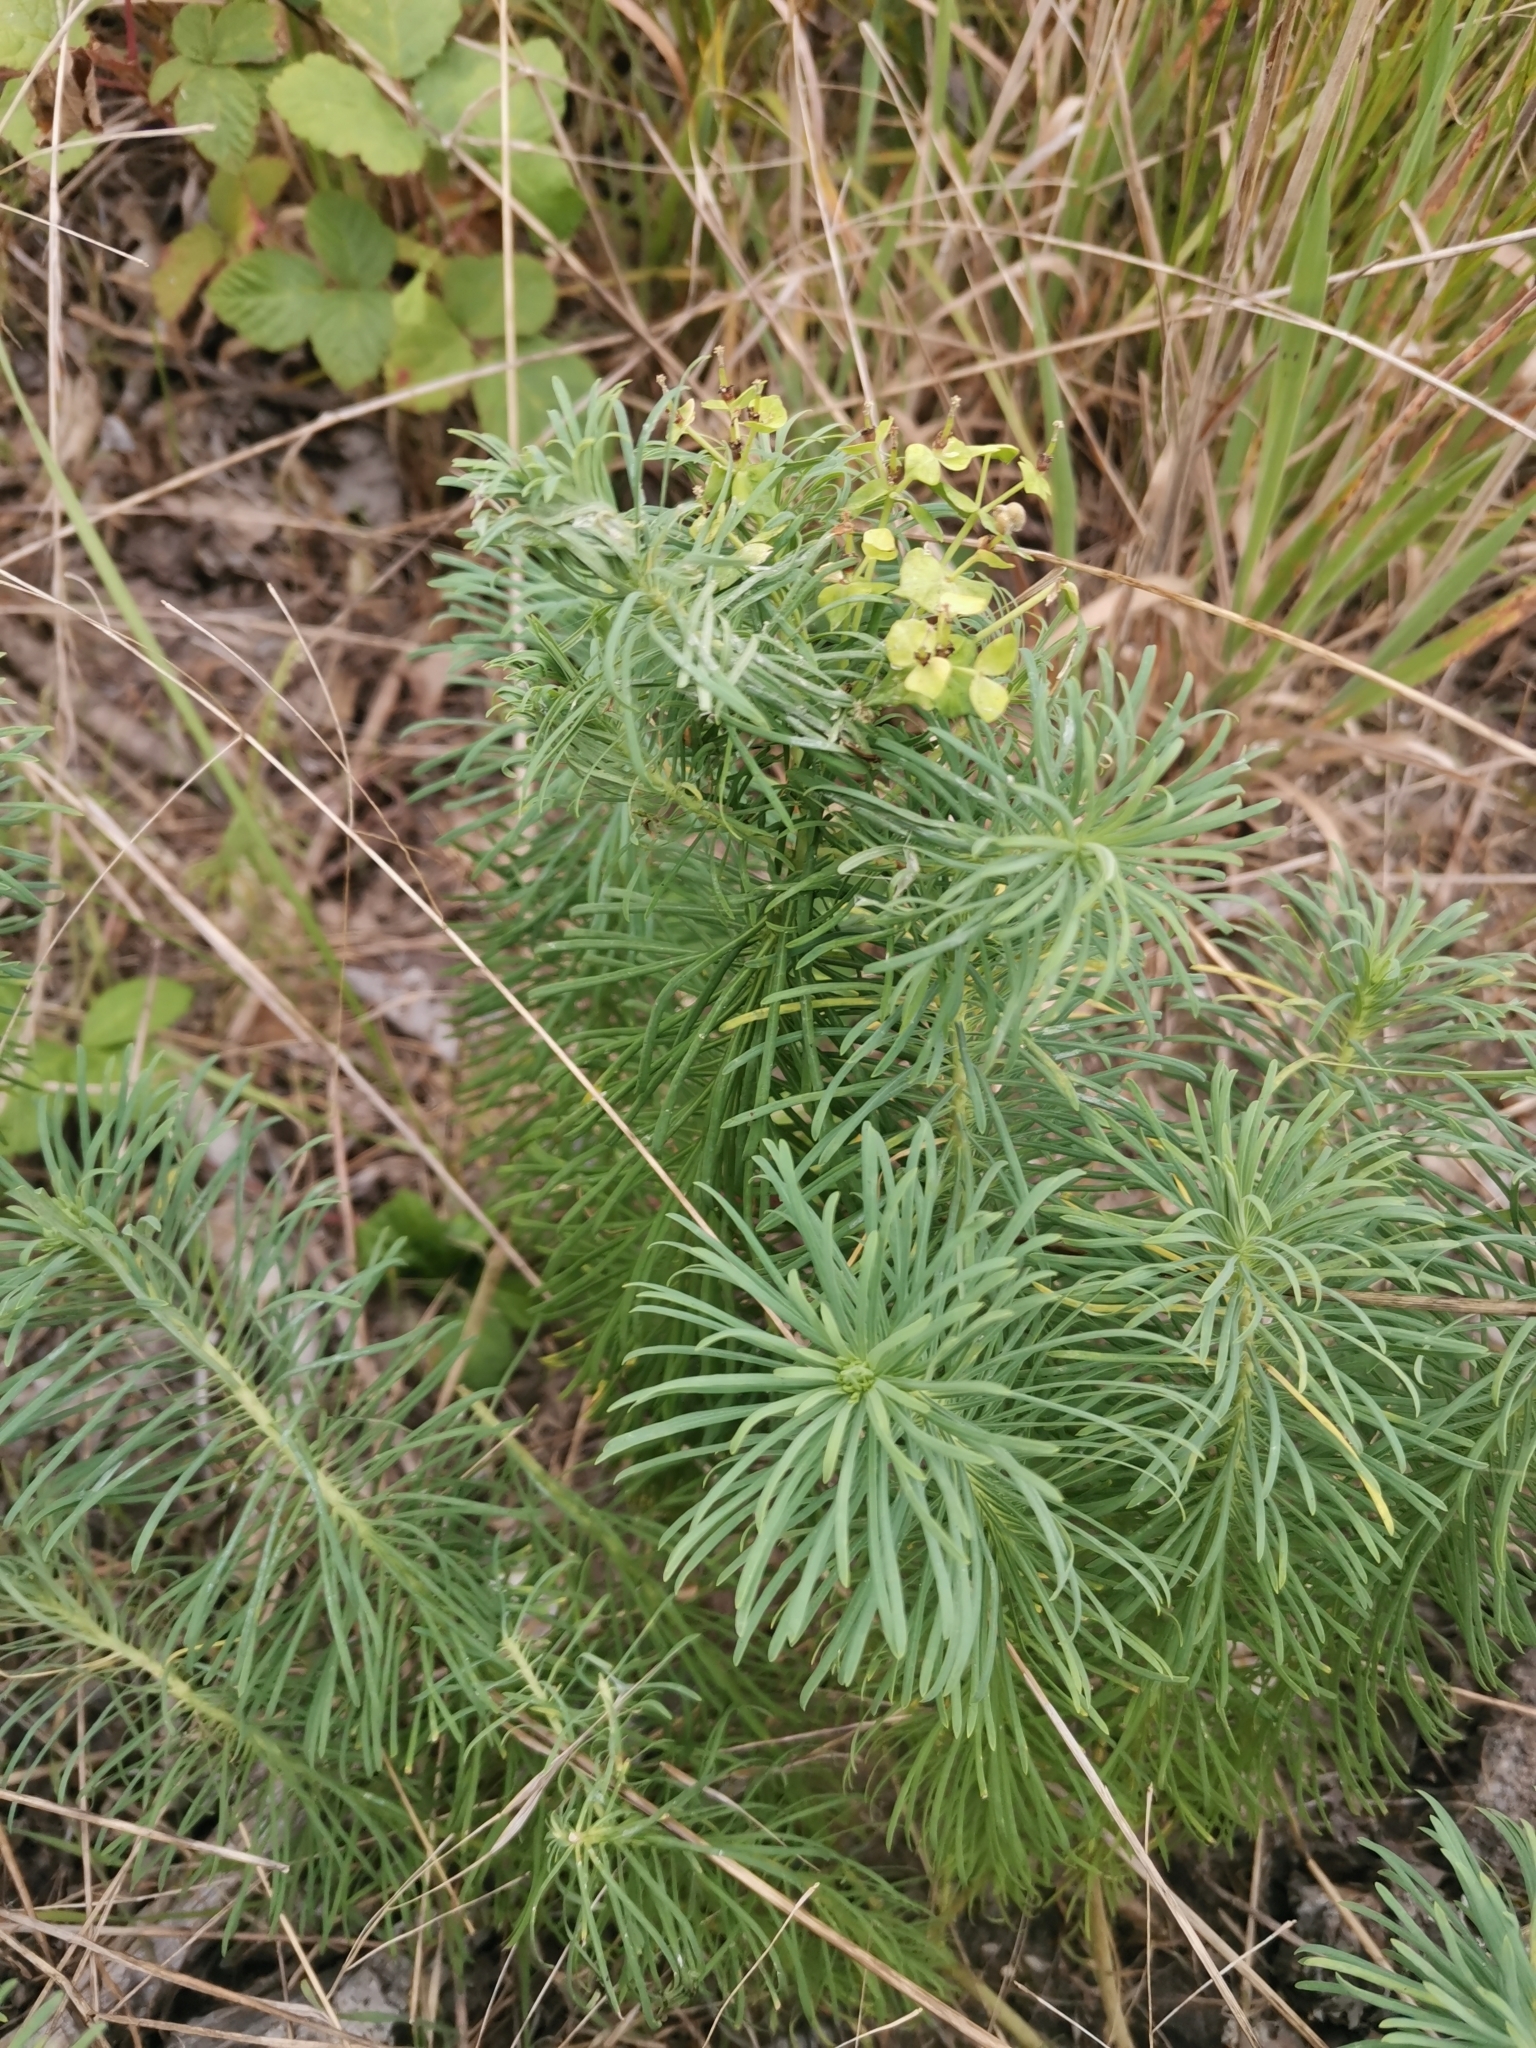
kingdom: Plantae
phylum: Tracheophyta
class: Magnoliopsida
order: Malpighiales
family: Euphorbiaceae
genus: Euphorbia
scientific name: Euphorbia cyparissias
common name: Cypress spurge
